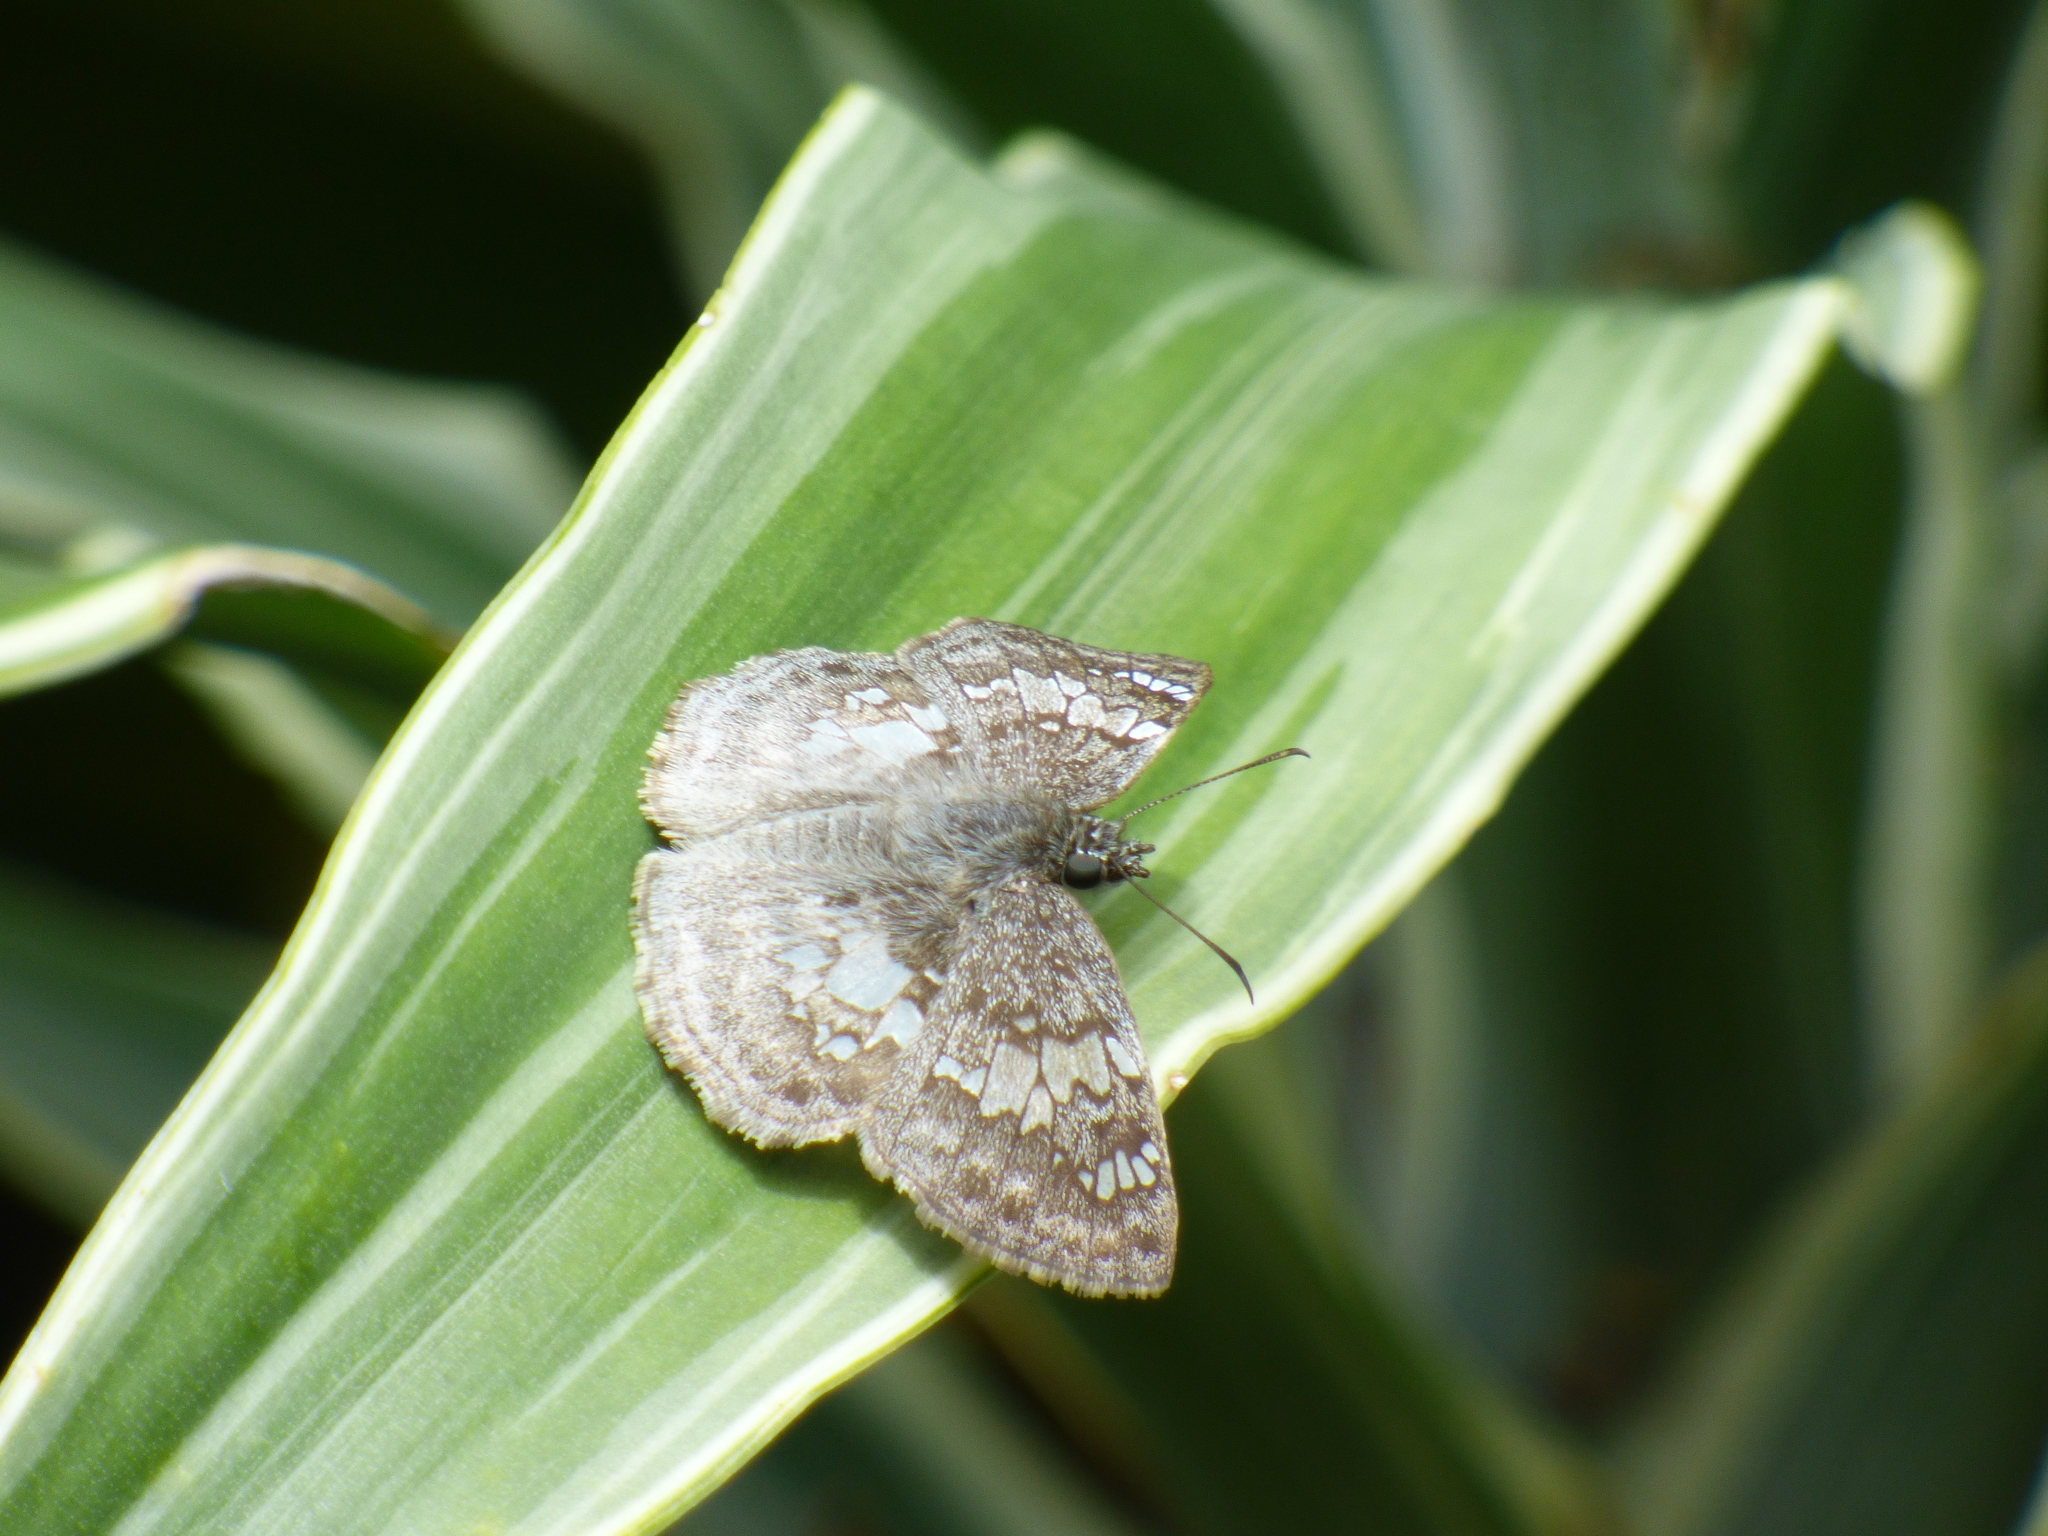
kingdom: Animalia
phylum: Arthropoda
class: Insecta
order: Lepidoptera
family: Hesperiidae
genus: Xenophanes
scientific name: Xenophanes tryxus
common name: Glassy-winged skipper
